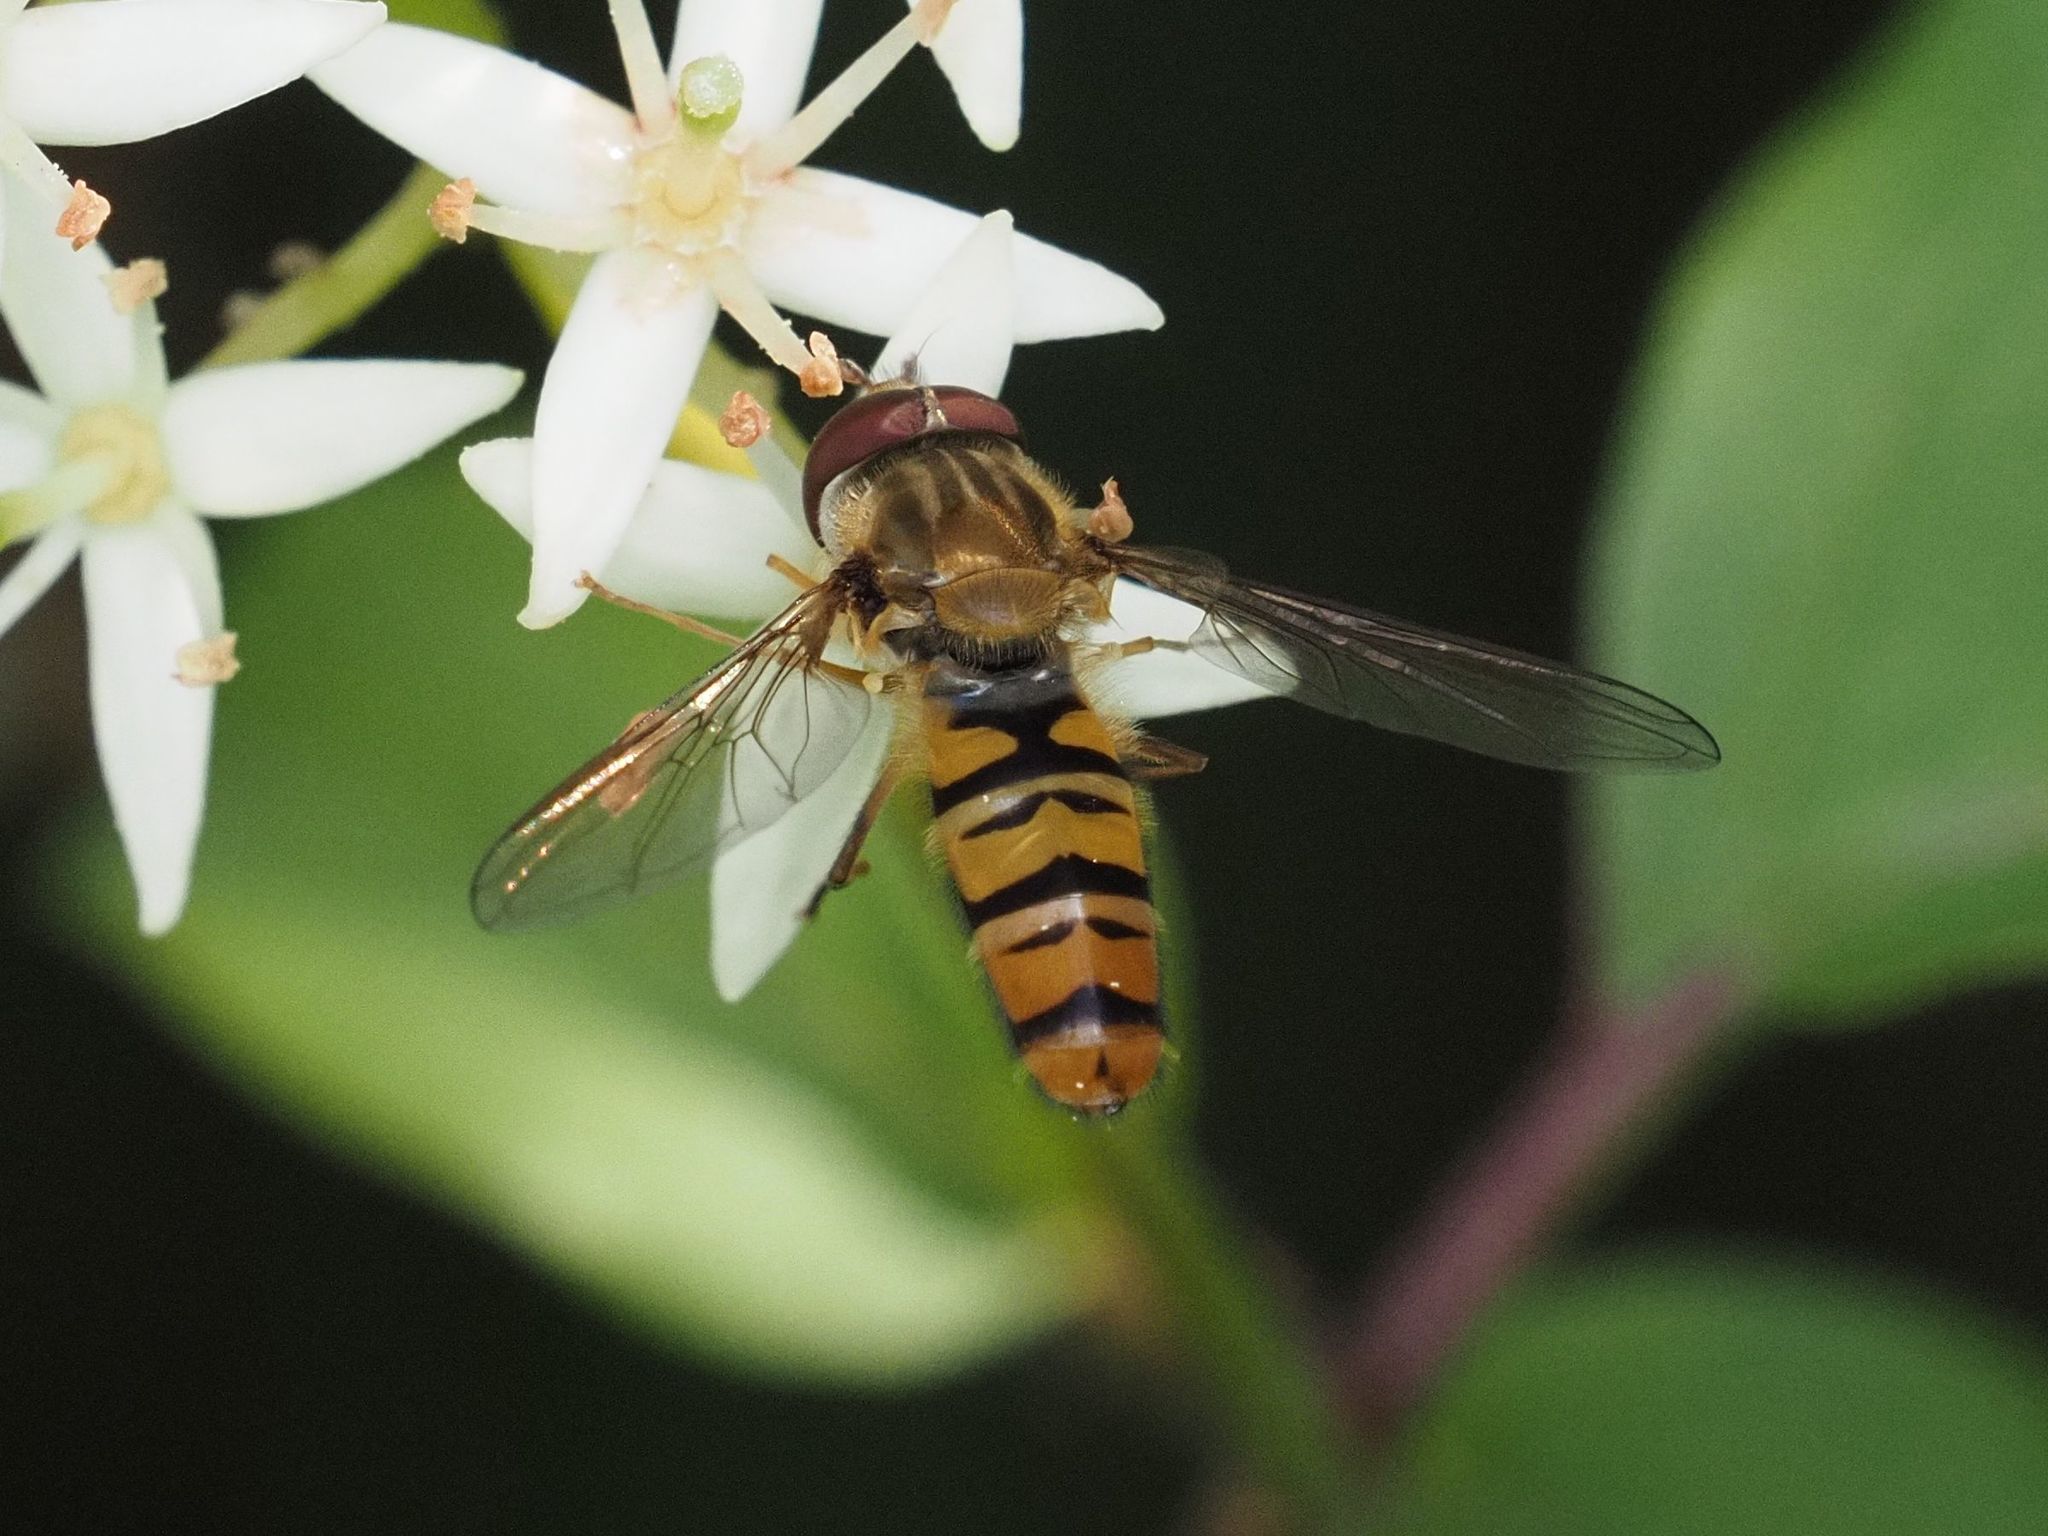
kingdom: Animalia
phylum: Arthropoda
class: Insecta
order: Diptera
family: Syrphidae
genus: Episyrphus
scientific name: Episyrphus balteatus
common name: Marmalade hoverfly
